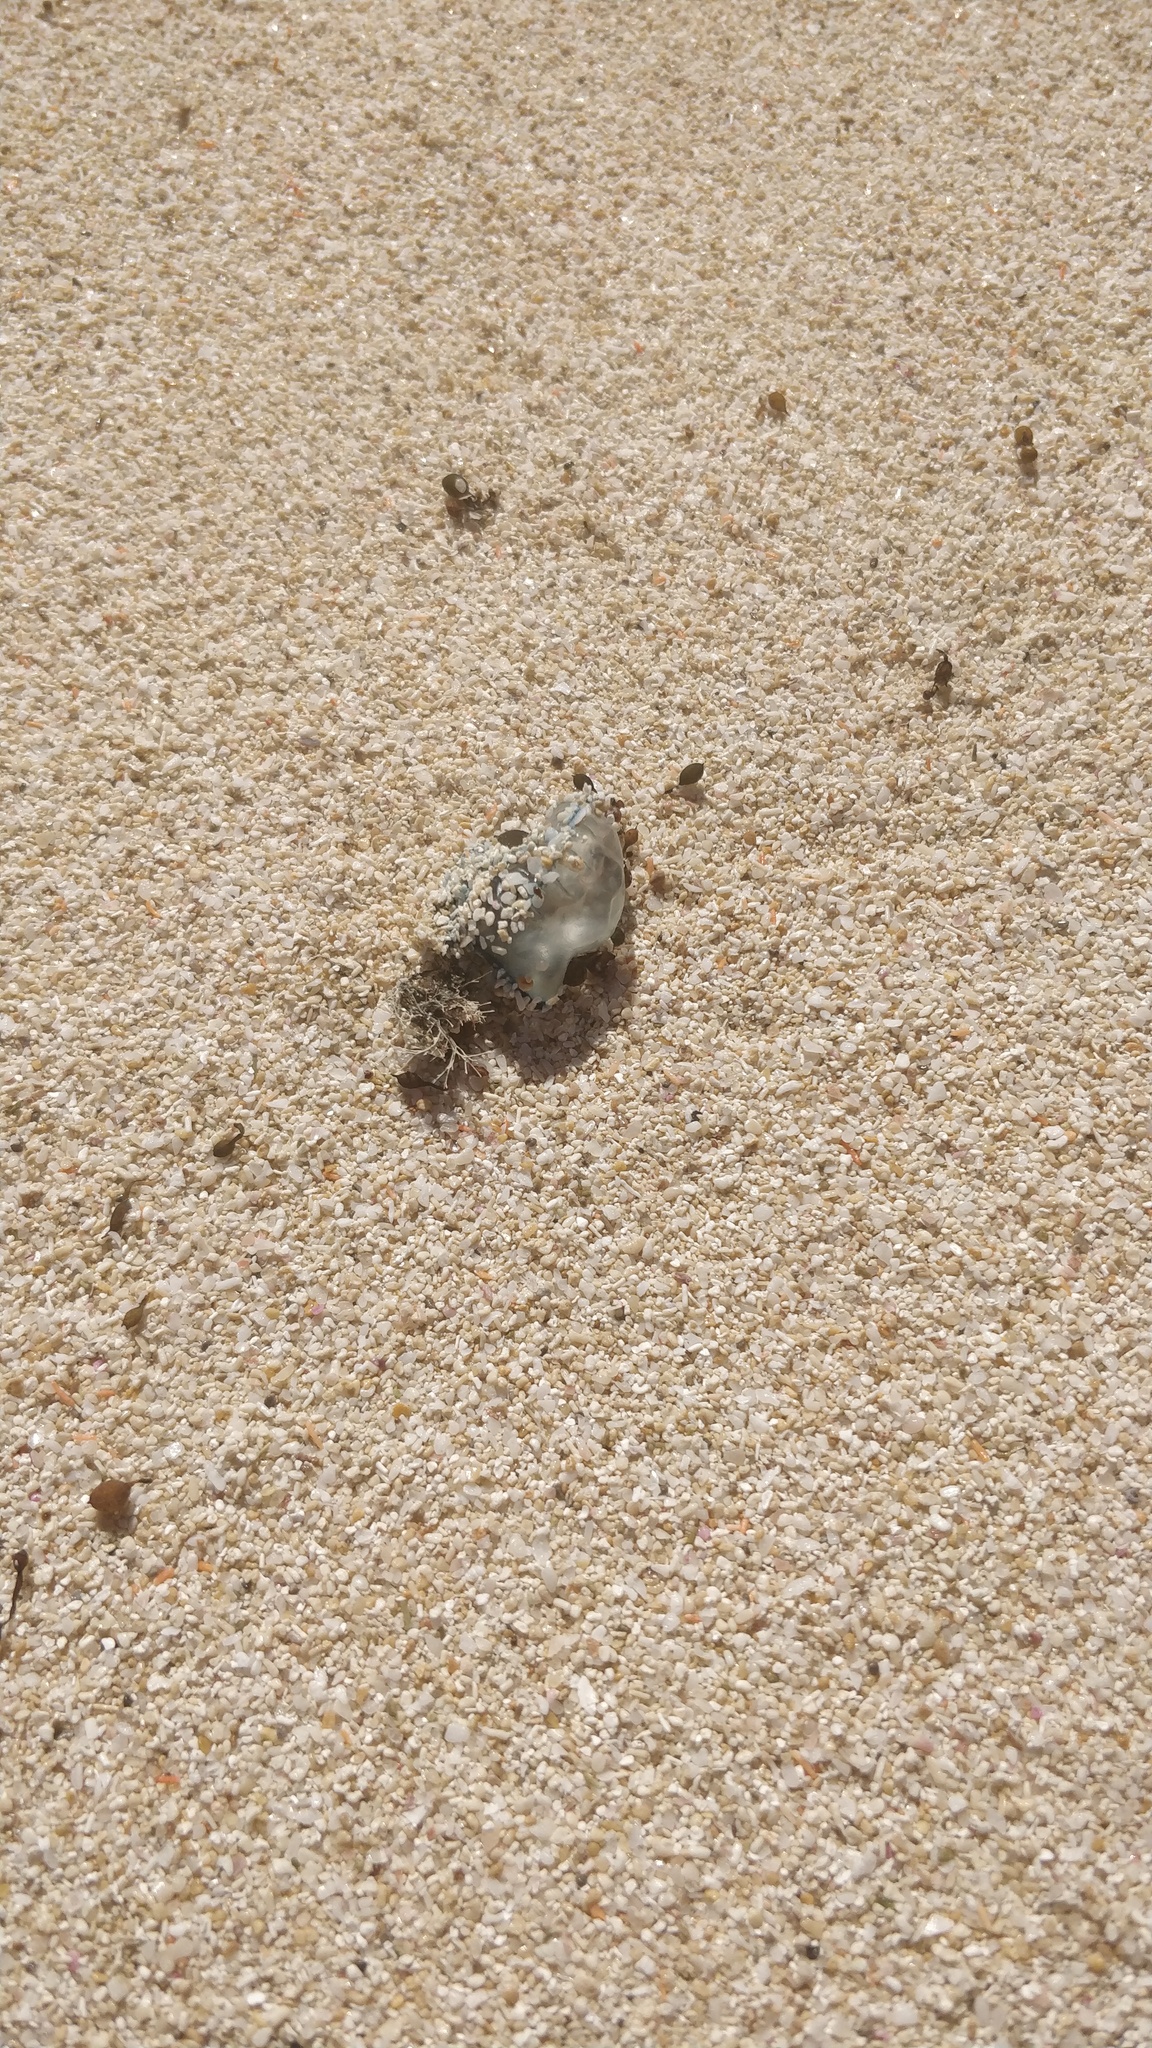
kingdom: Animalia
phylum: Cnidaria
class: Hydrozoa
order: Siphonophorae
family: Physaliidae
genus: Physalia
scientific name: Physalia physalis
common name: Portuguese man-of-war
